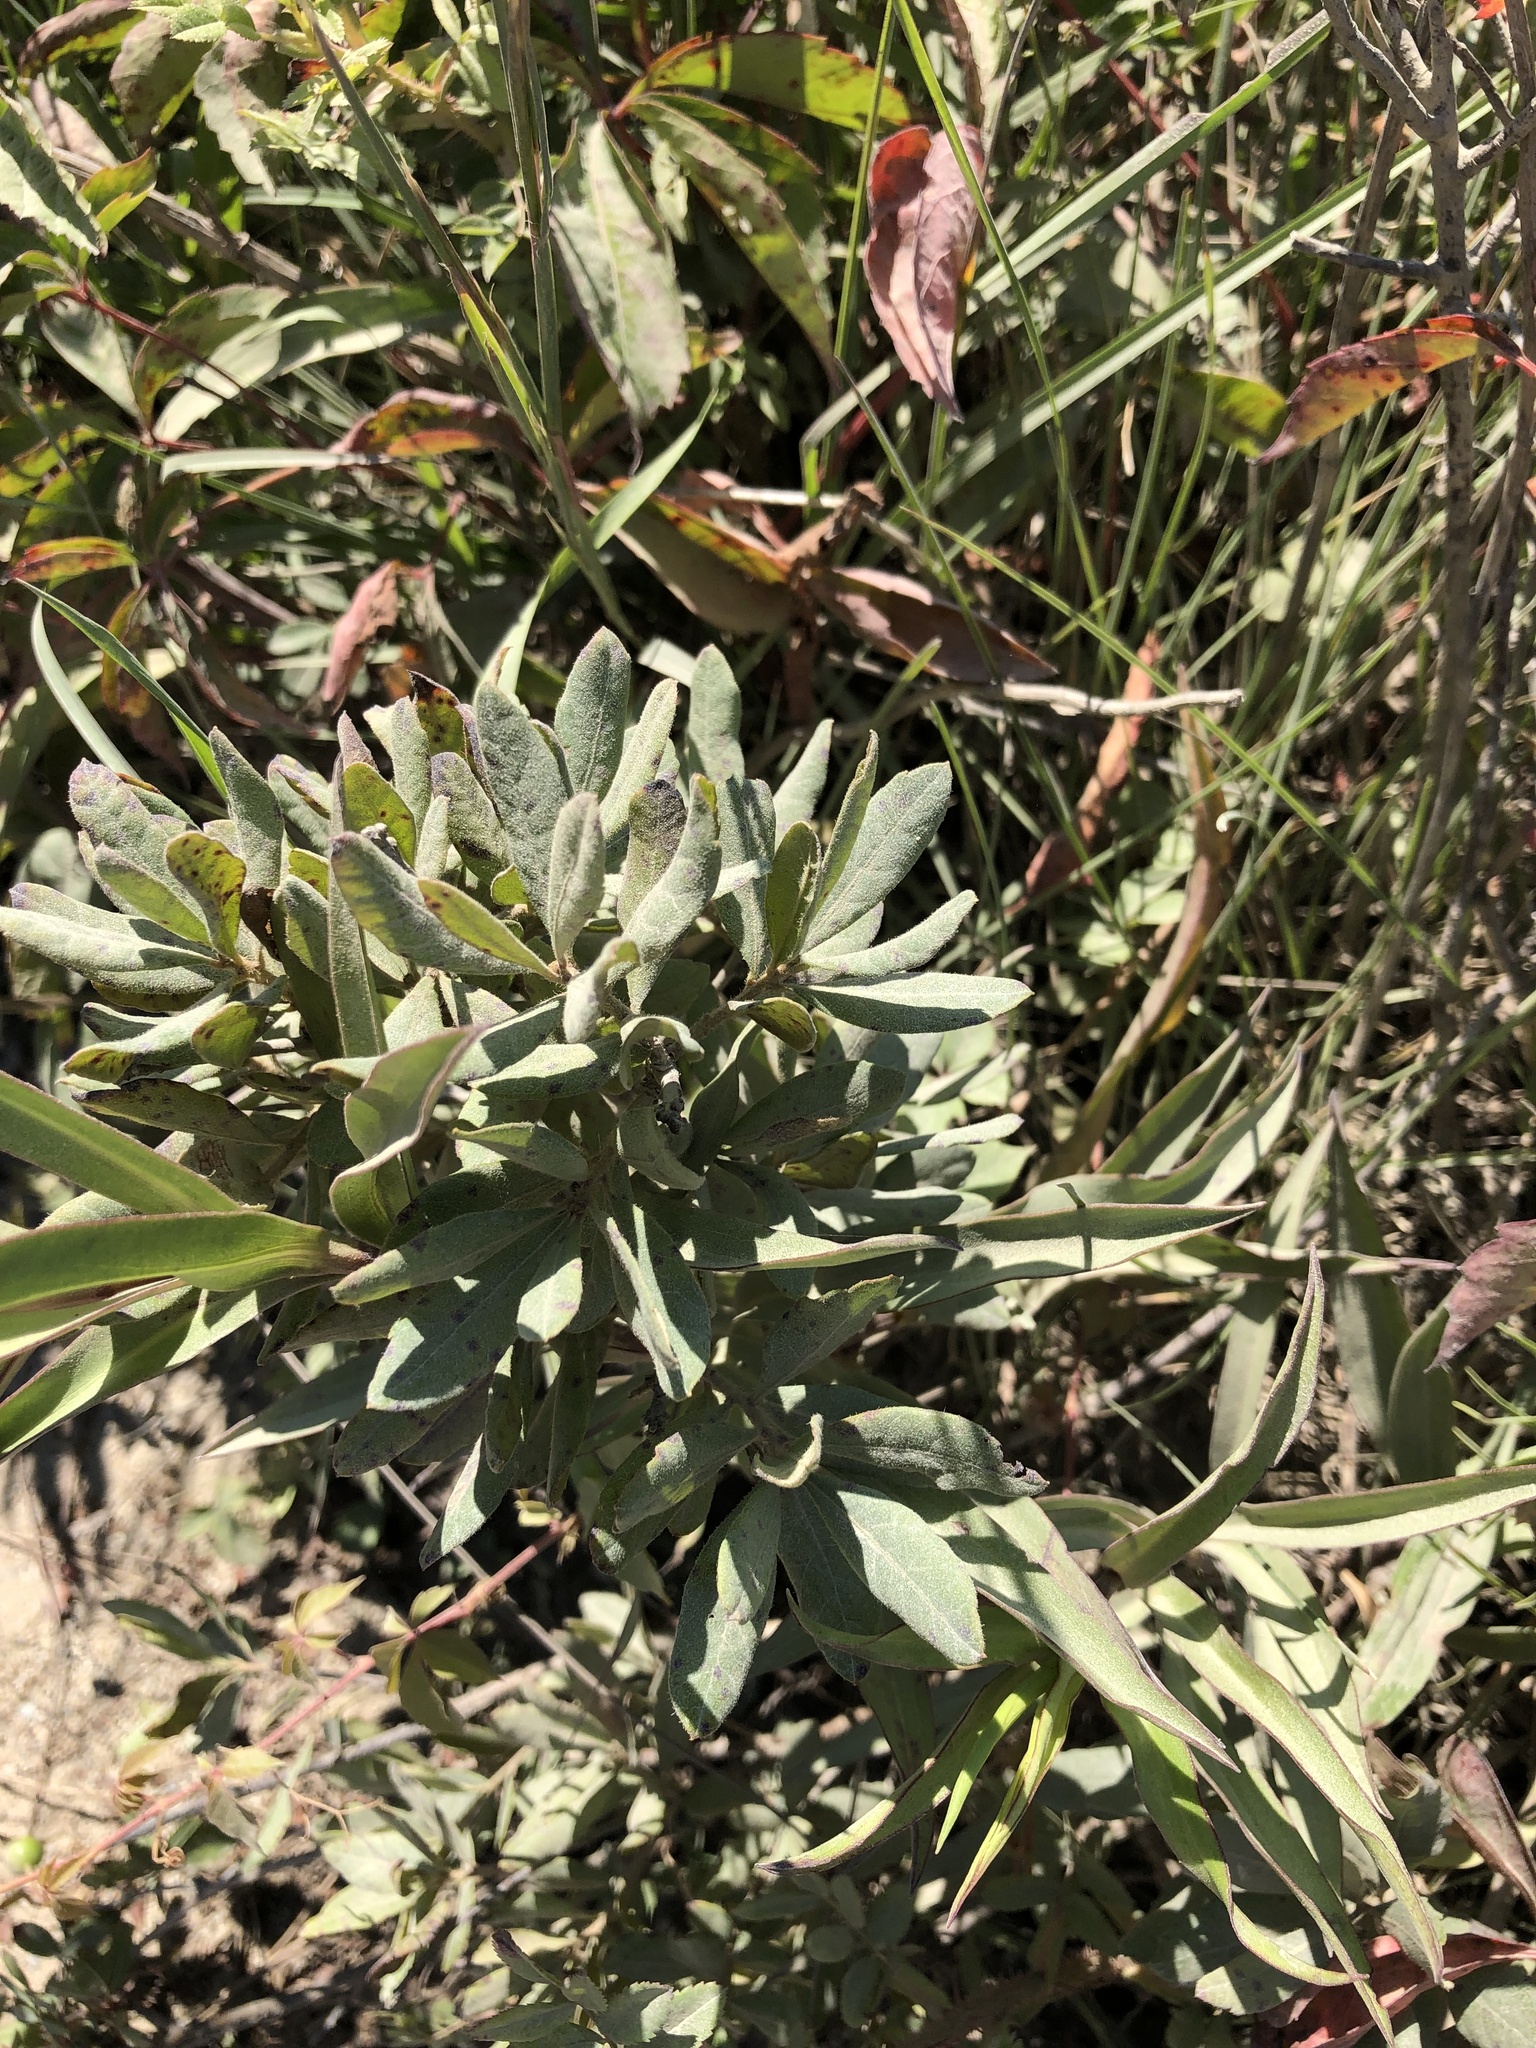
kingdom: Plantae
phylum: Tracheophyta
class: Magnoliopsida
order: Fagales
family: Myricaceae
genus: Morella
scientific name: Morella pensylvanica
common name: Northern bayberry
